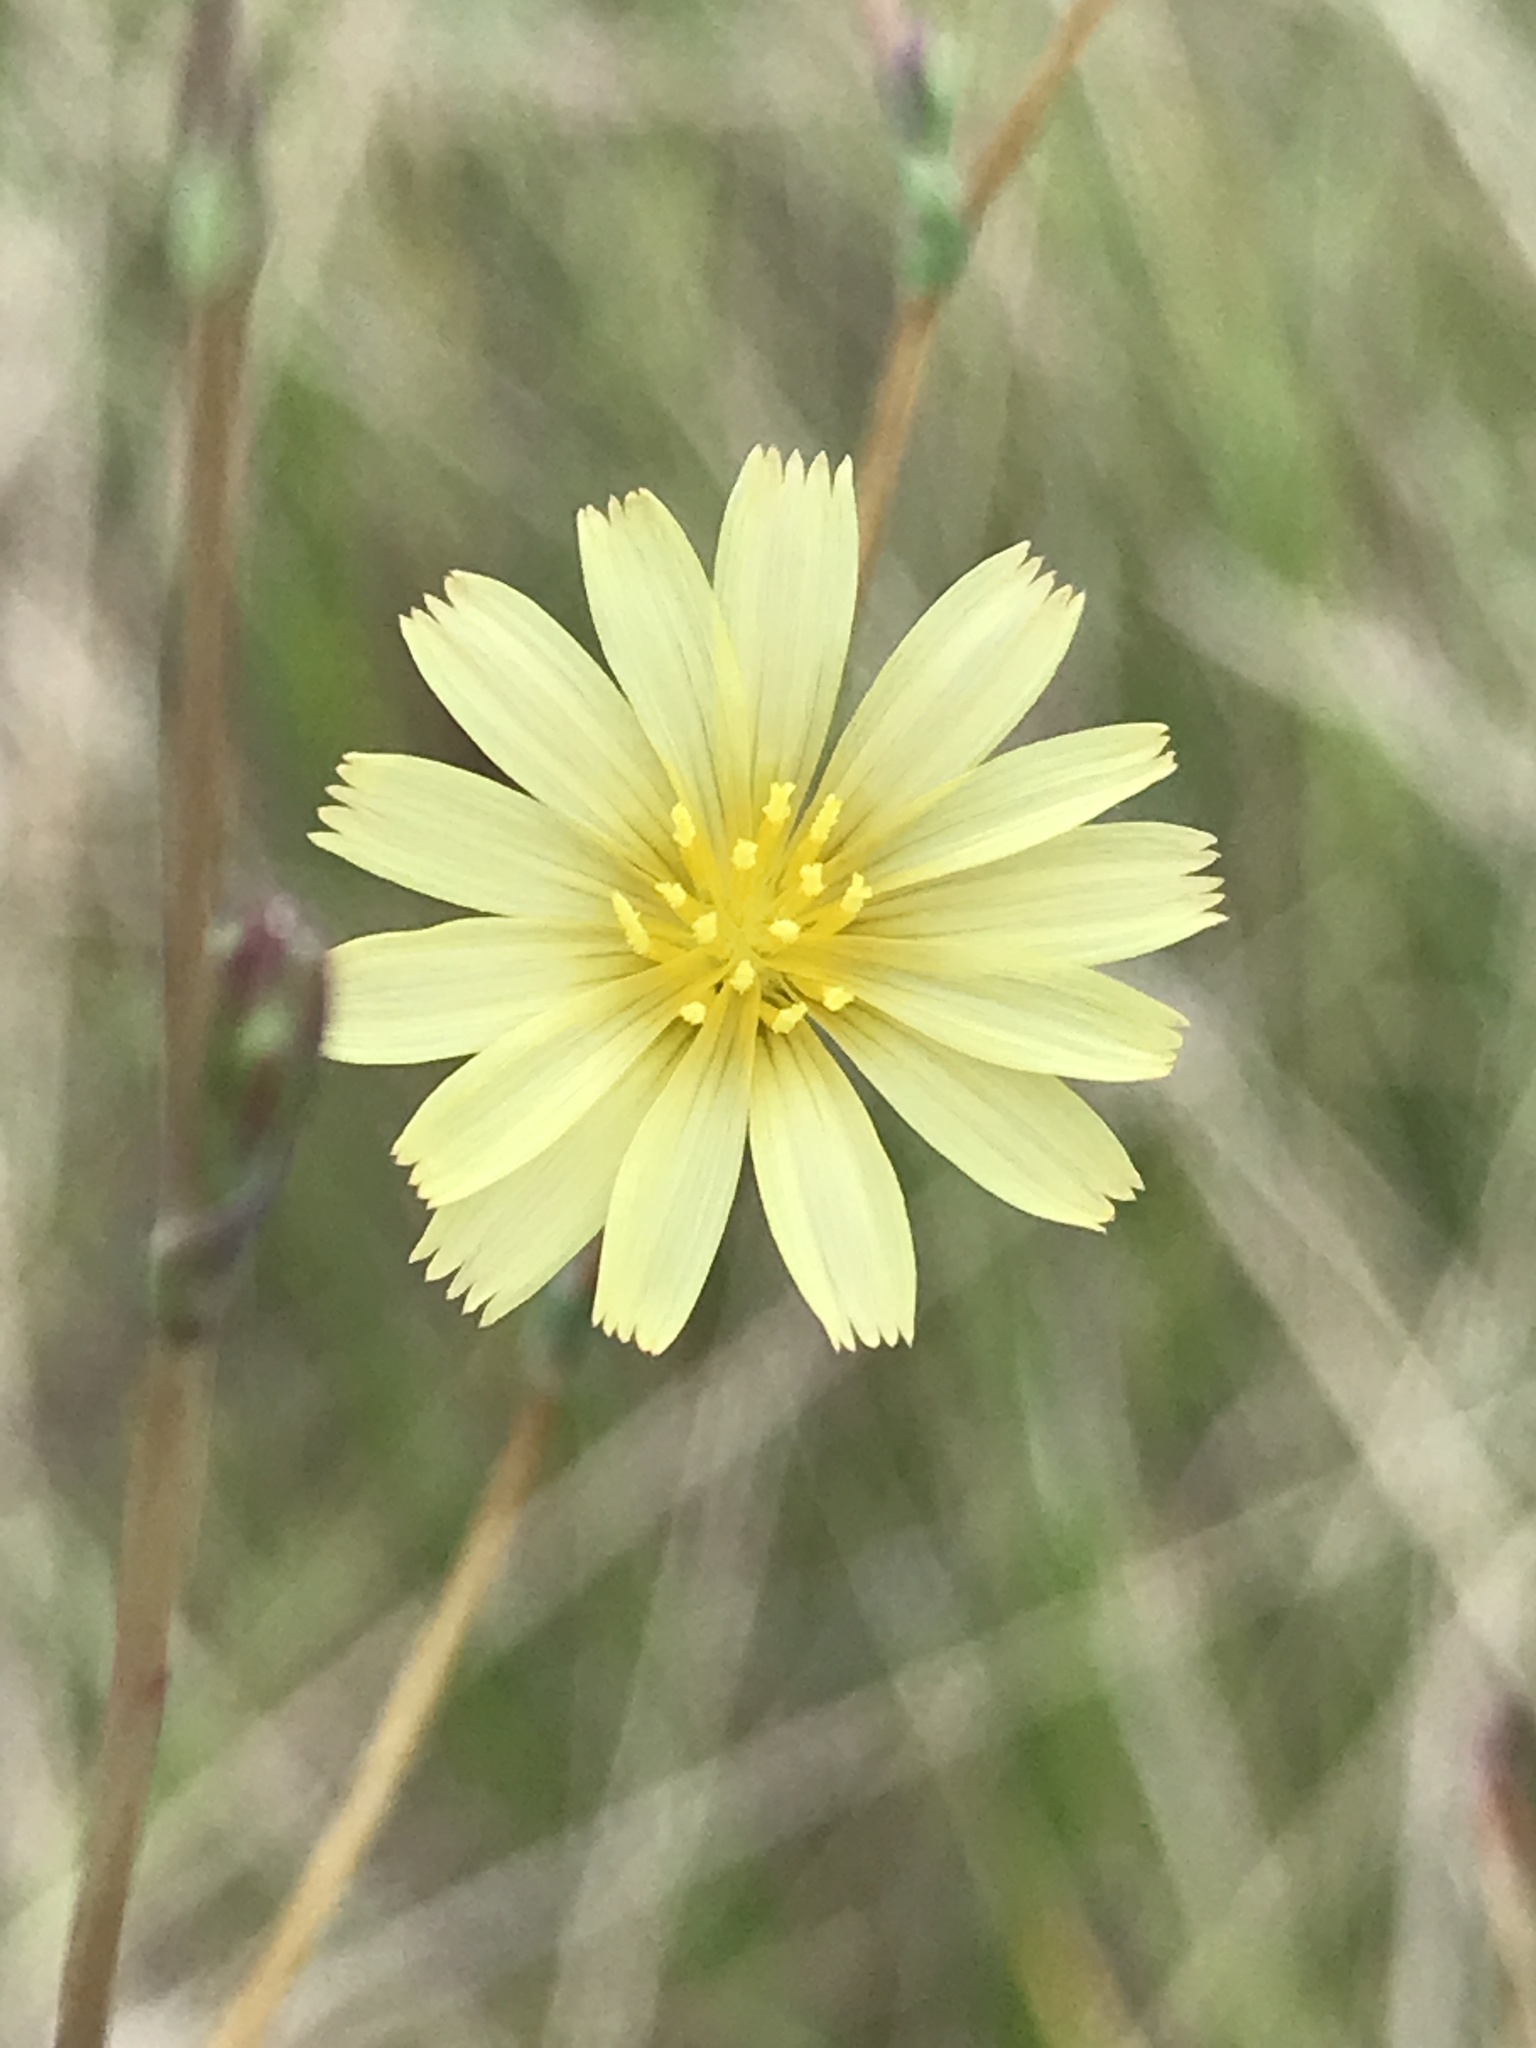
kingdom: Plantae
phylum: Tracheophyta
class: Magnoliopsida
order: Asterales
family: Asteraceae
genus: Lactuca
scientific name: Lactuca serriola
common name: Prickly lettuce
